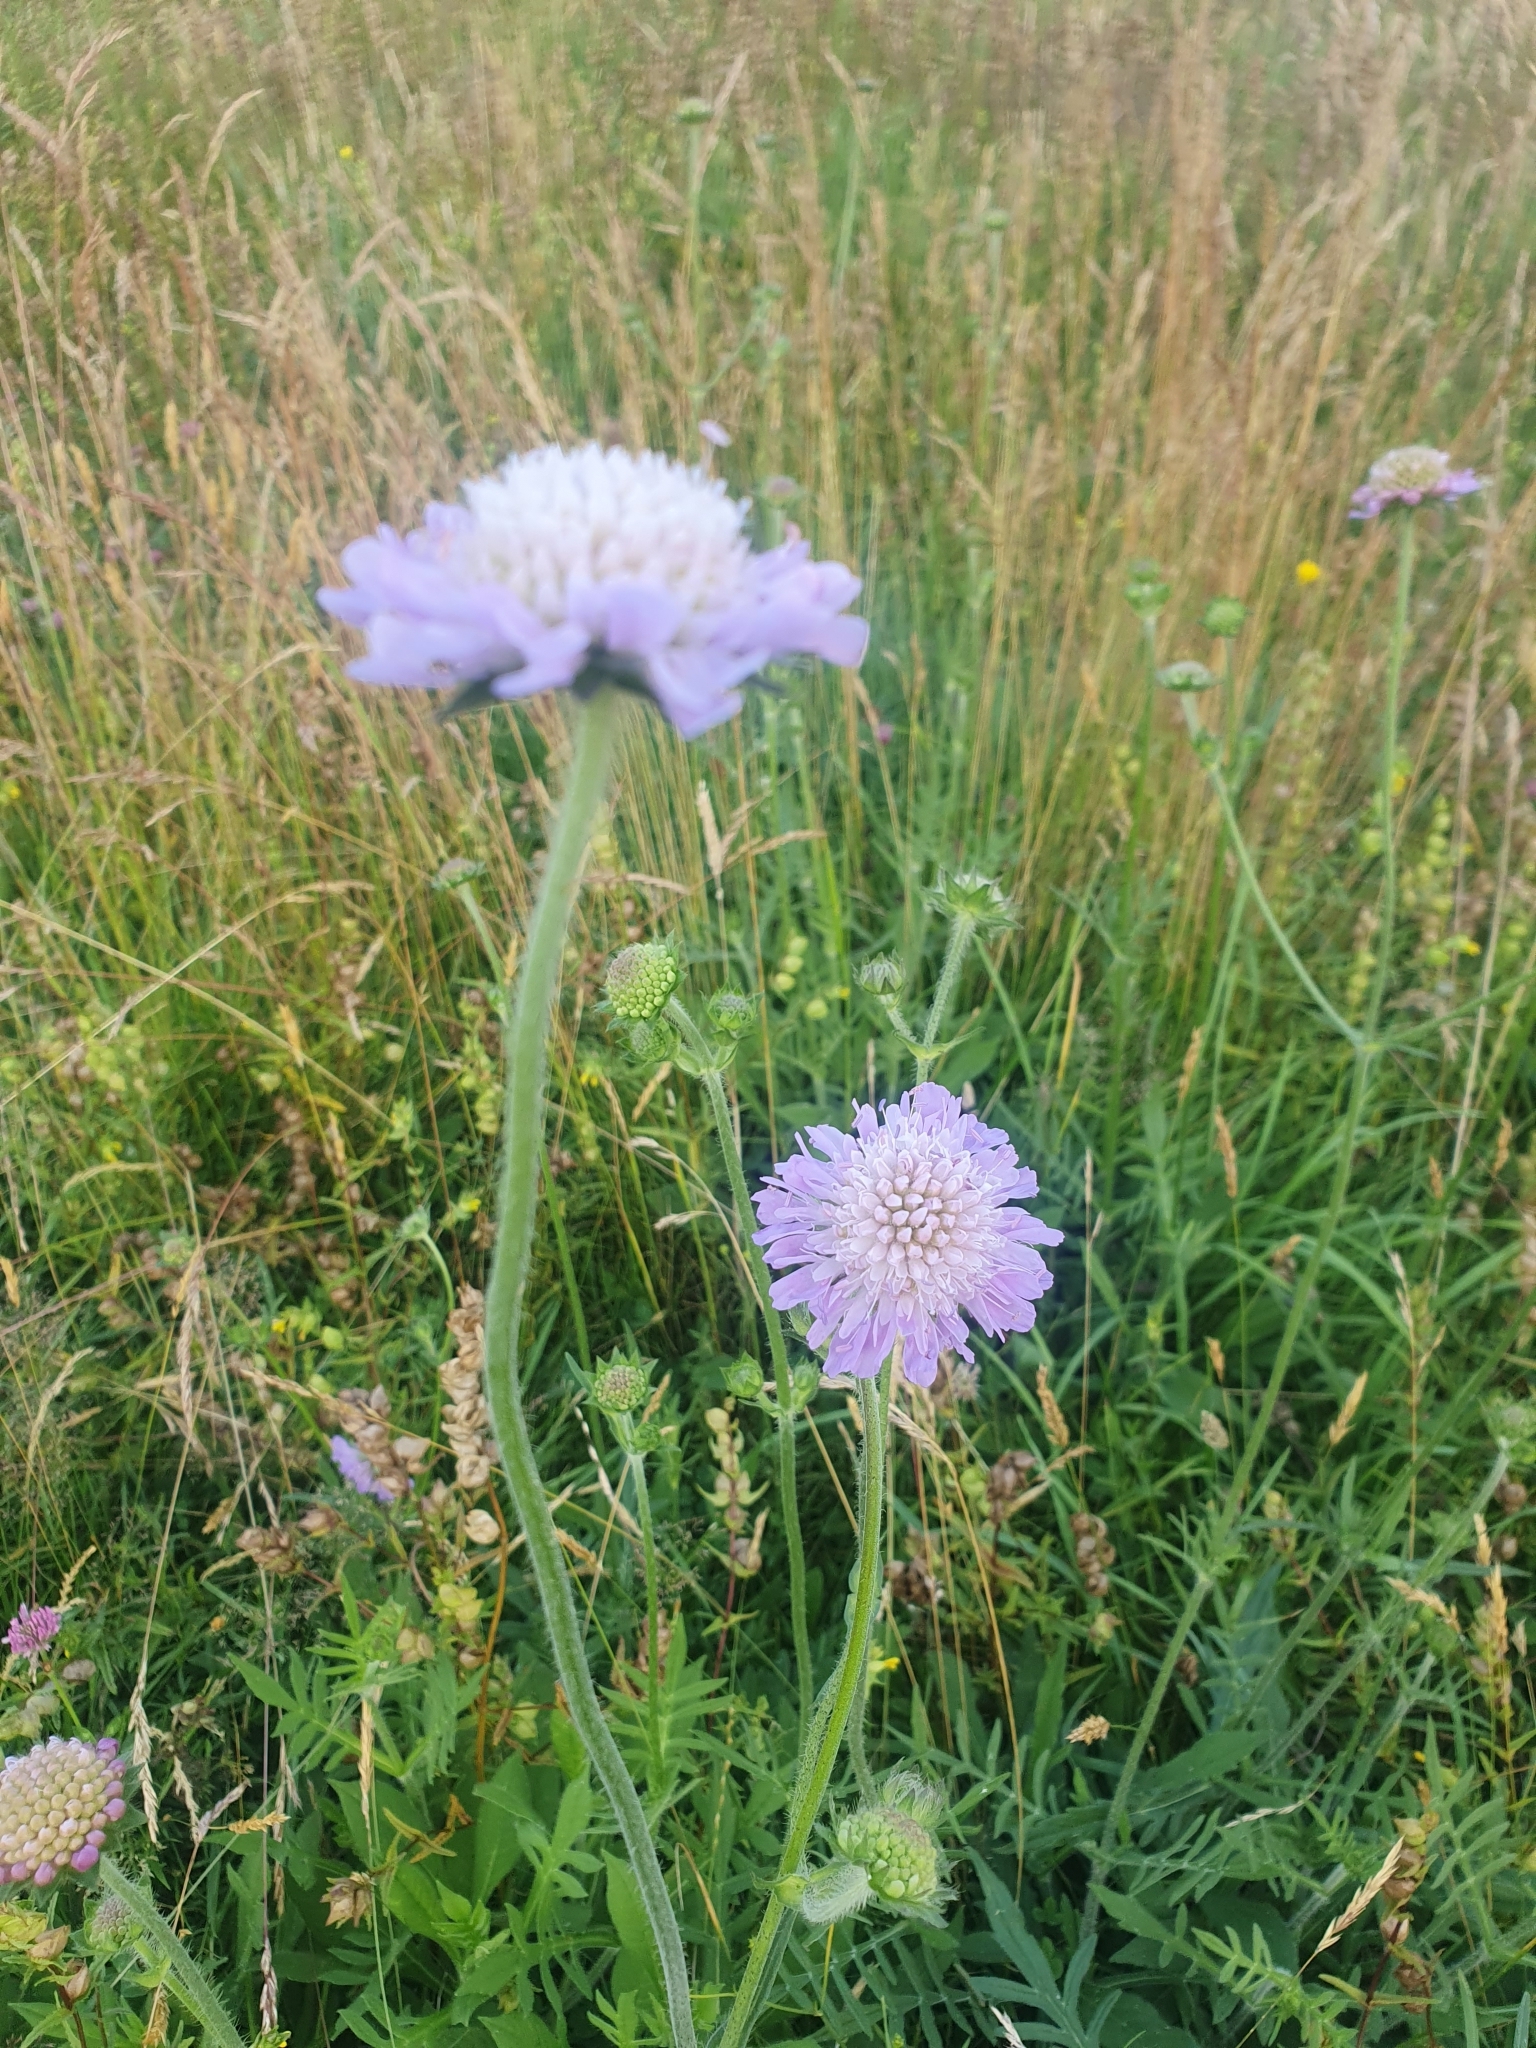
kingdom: Plantae
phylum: Tracheophyta
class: Magnoliopsida
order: Dipsacales
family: Caprifoliaceae
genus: Knautia
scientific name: Knautia arvensis
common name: Field scabiosa
